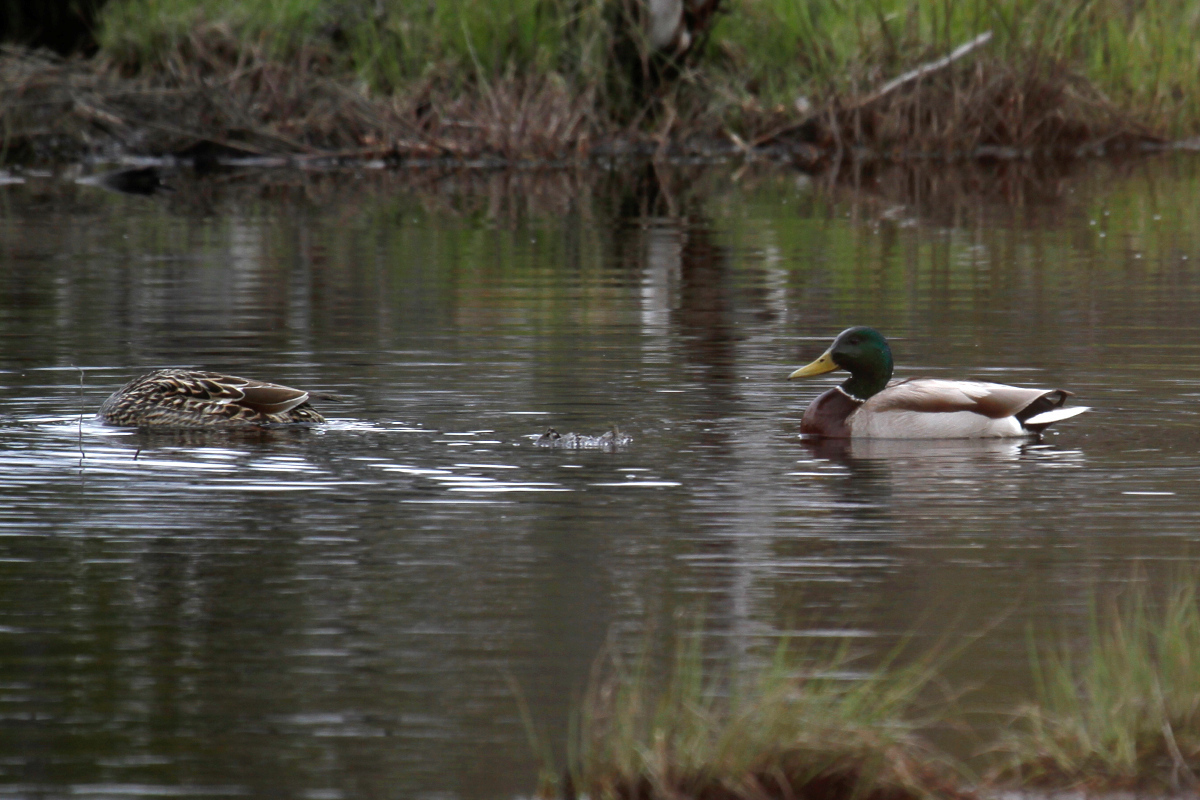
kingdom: Animalia
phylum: Chordata
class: Aves
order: Anseriformes
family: Anatidae
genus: Anas
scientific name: Anas platyrhynchos
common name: Mallard
